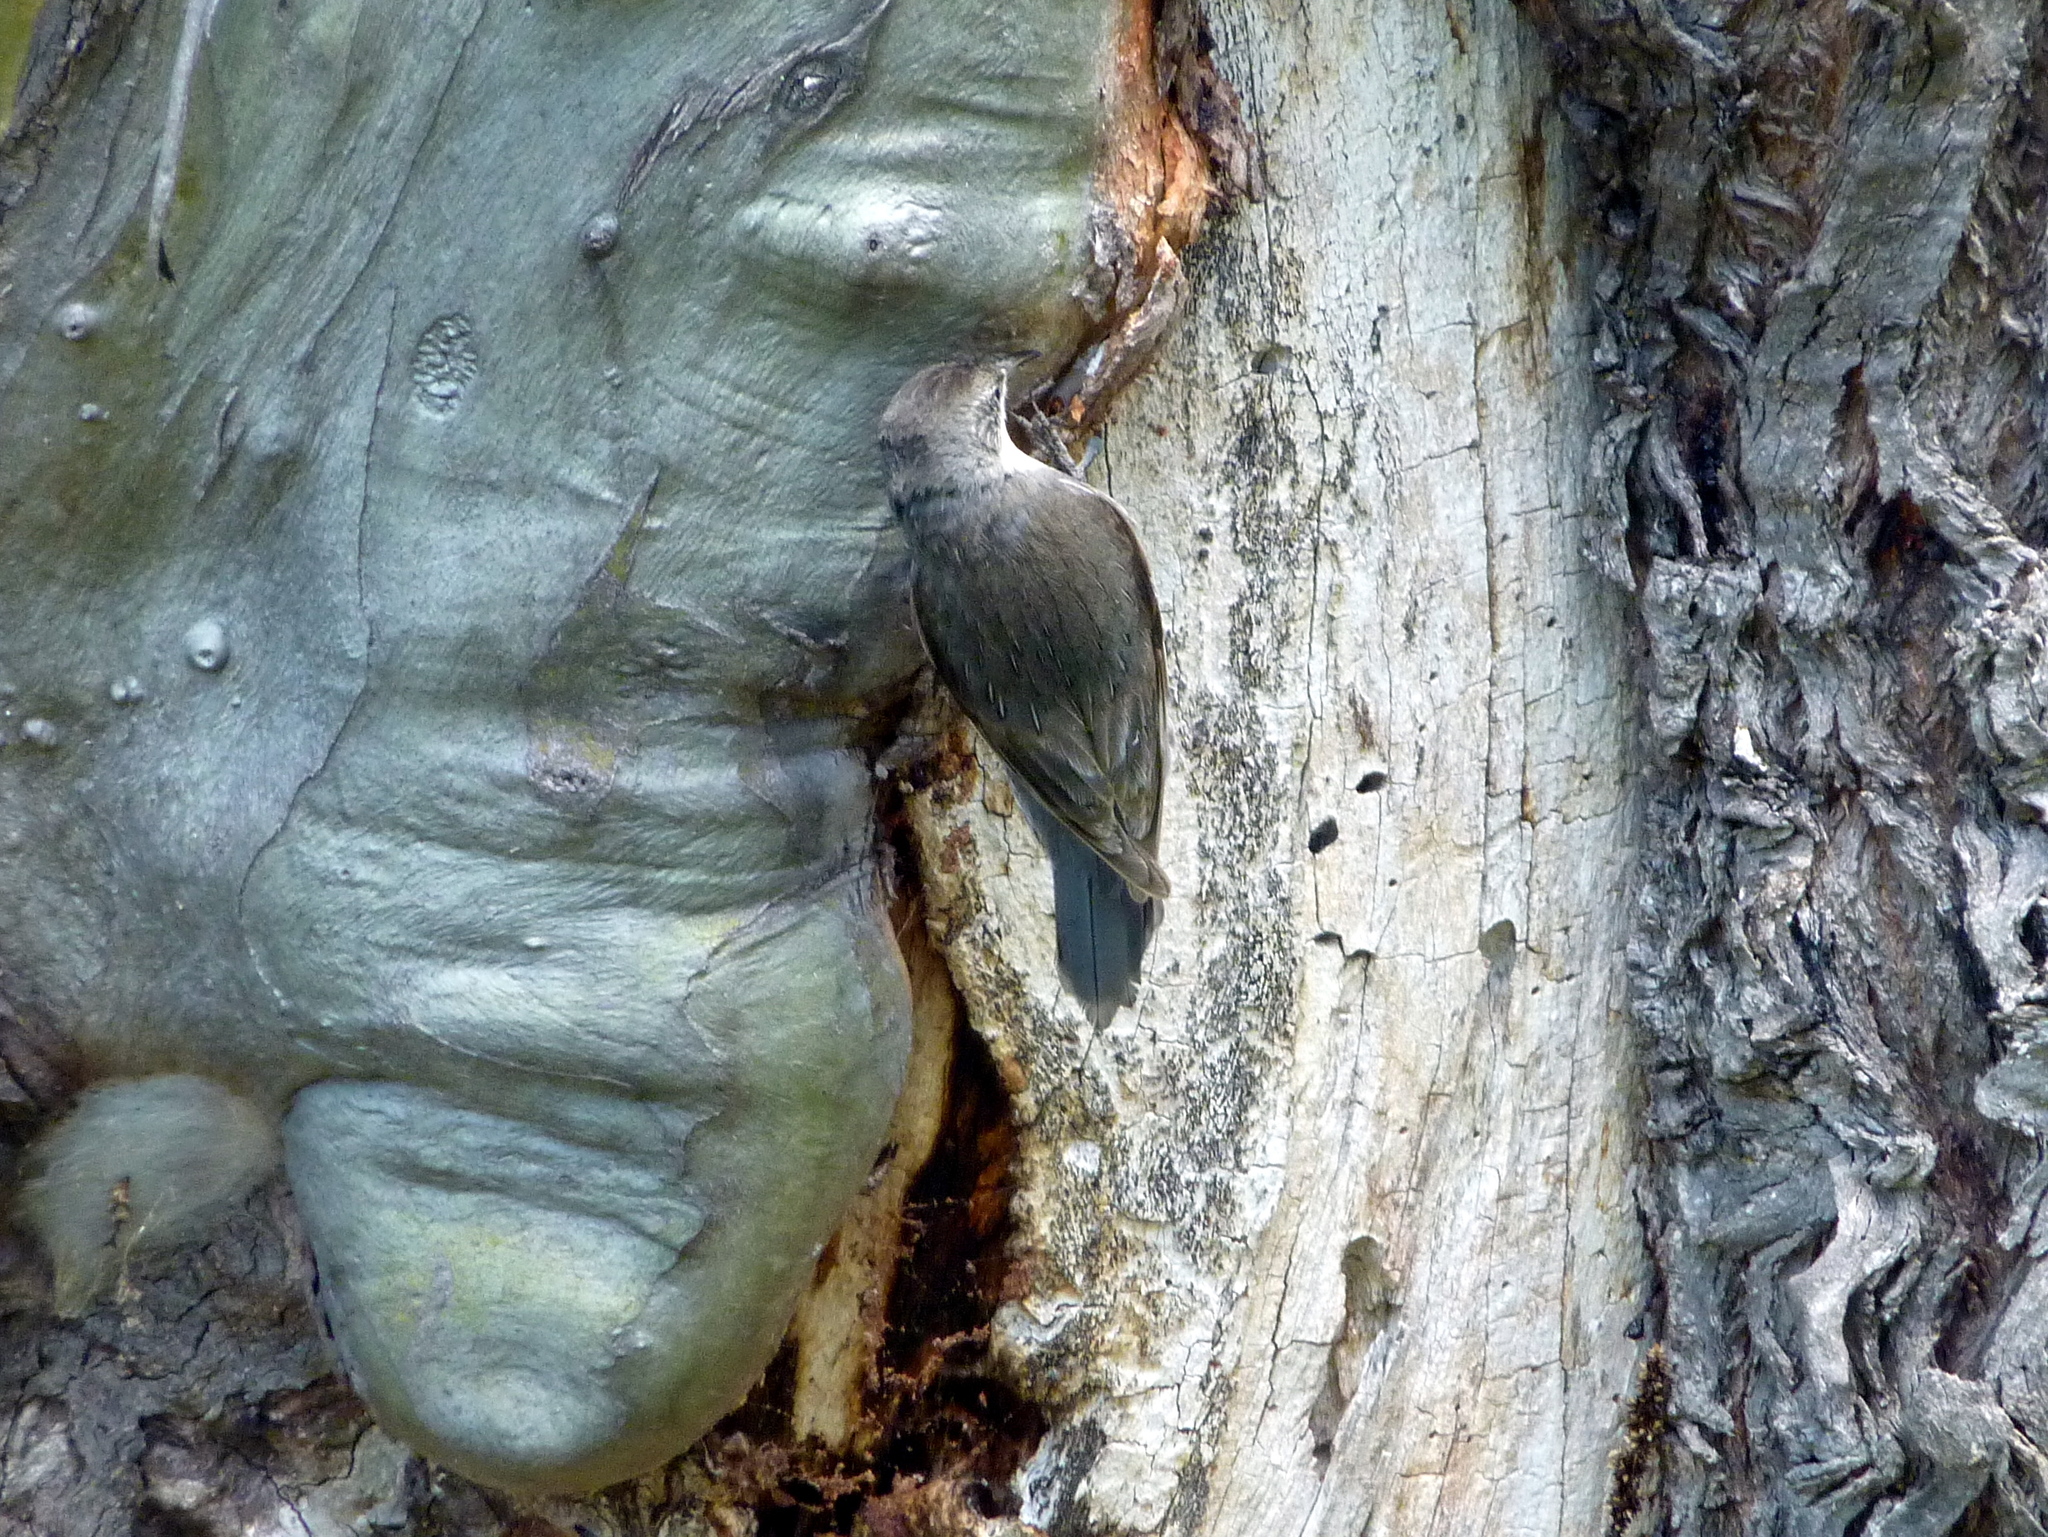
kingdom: Animalia
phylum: Chordata
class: Aves
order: Passeriformes
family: Climacteridae
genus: Cormobates
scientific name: Cormobates leucophaea
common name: White-throated treecreeper
